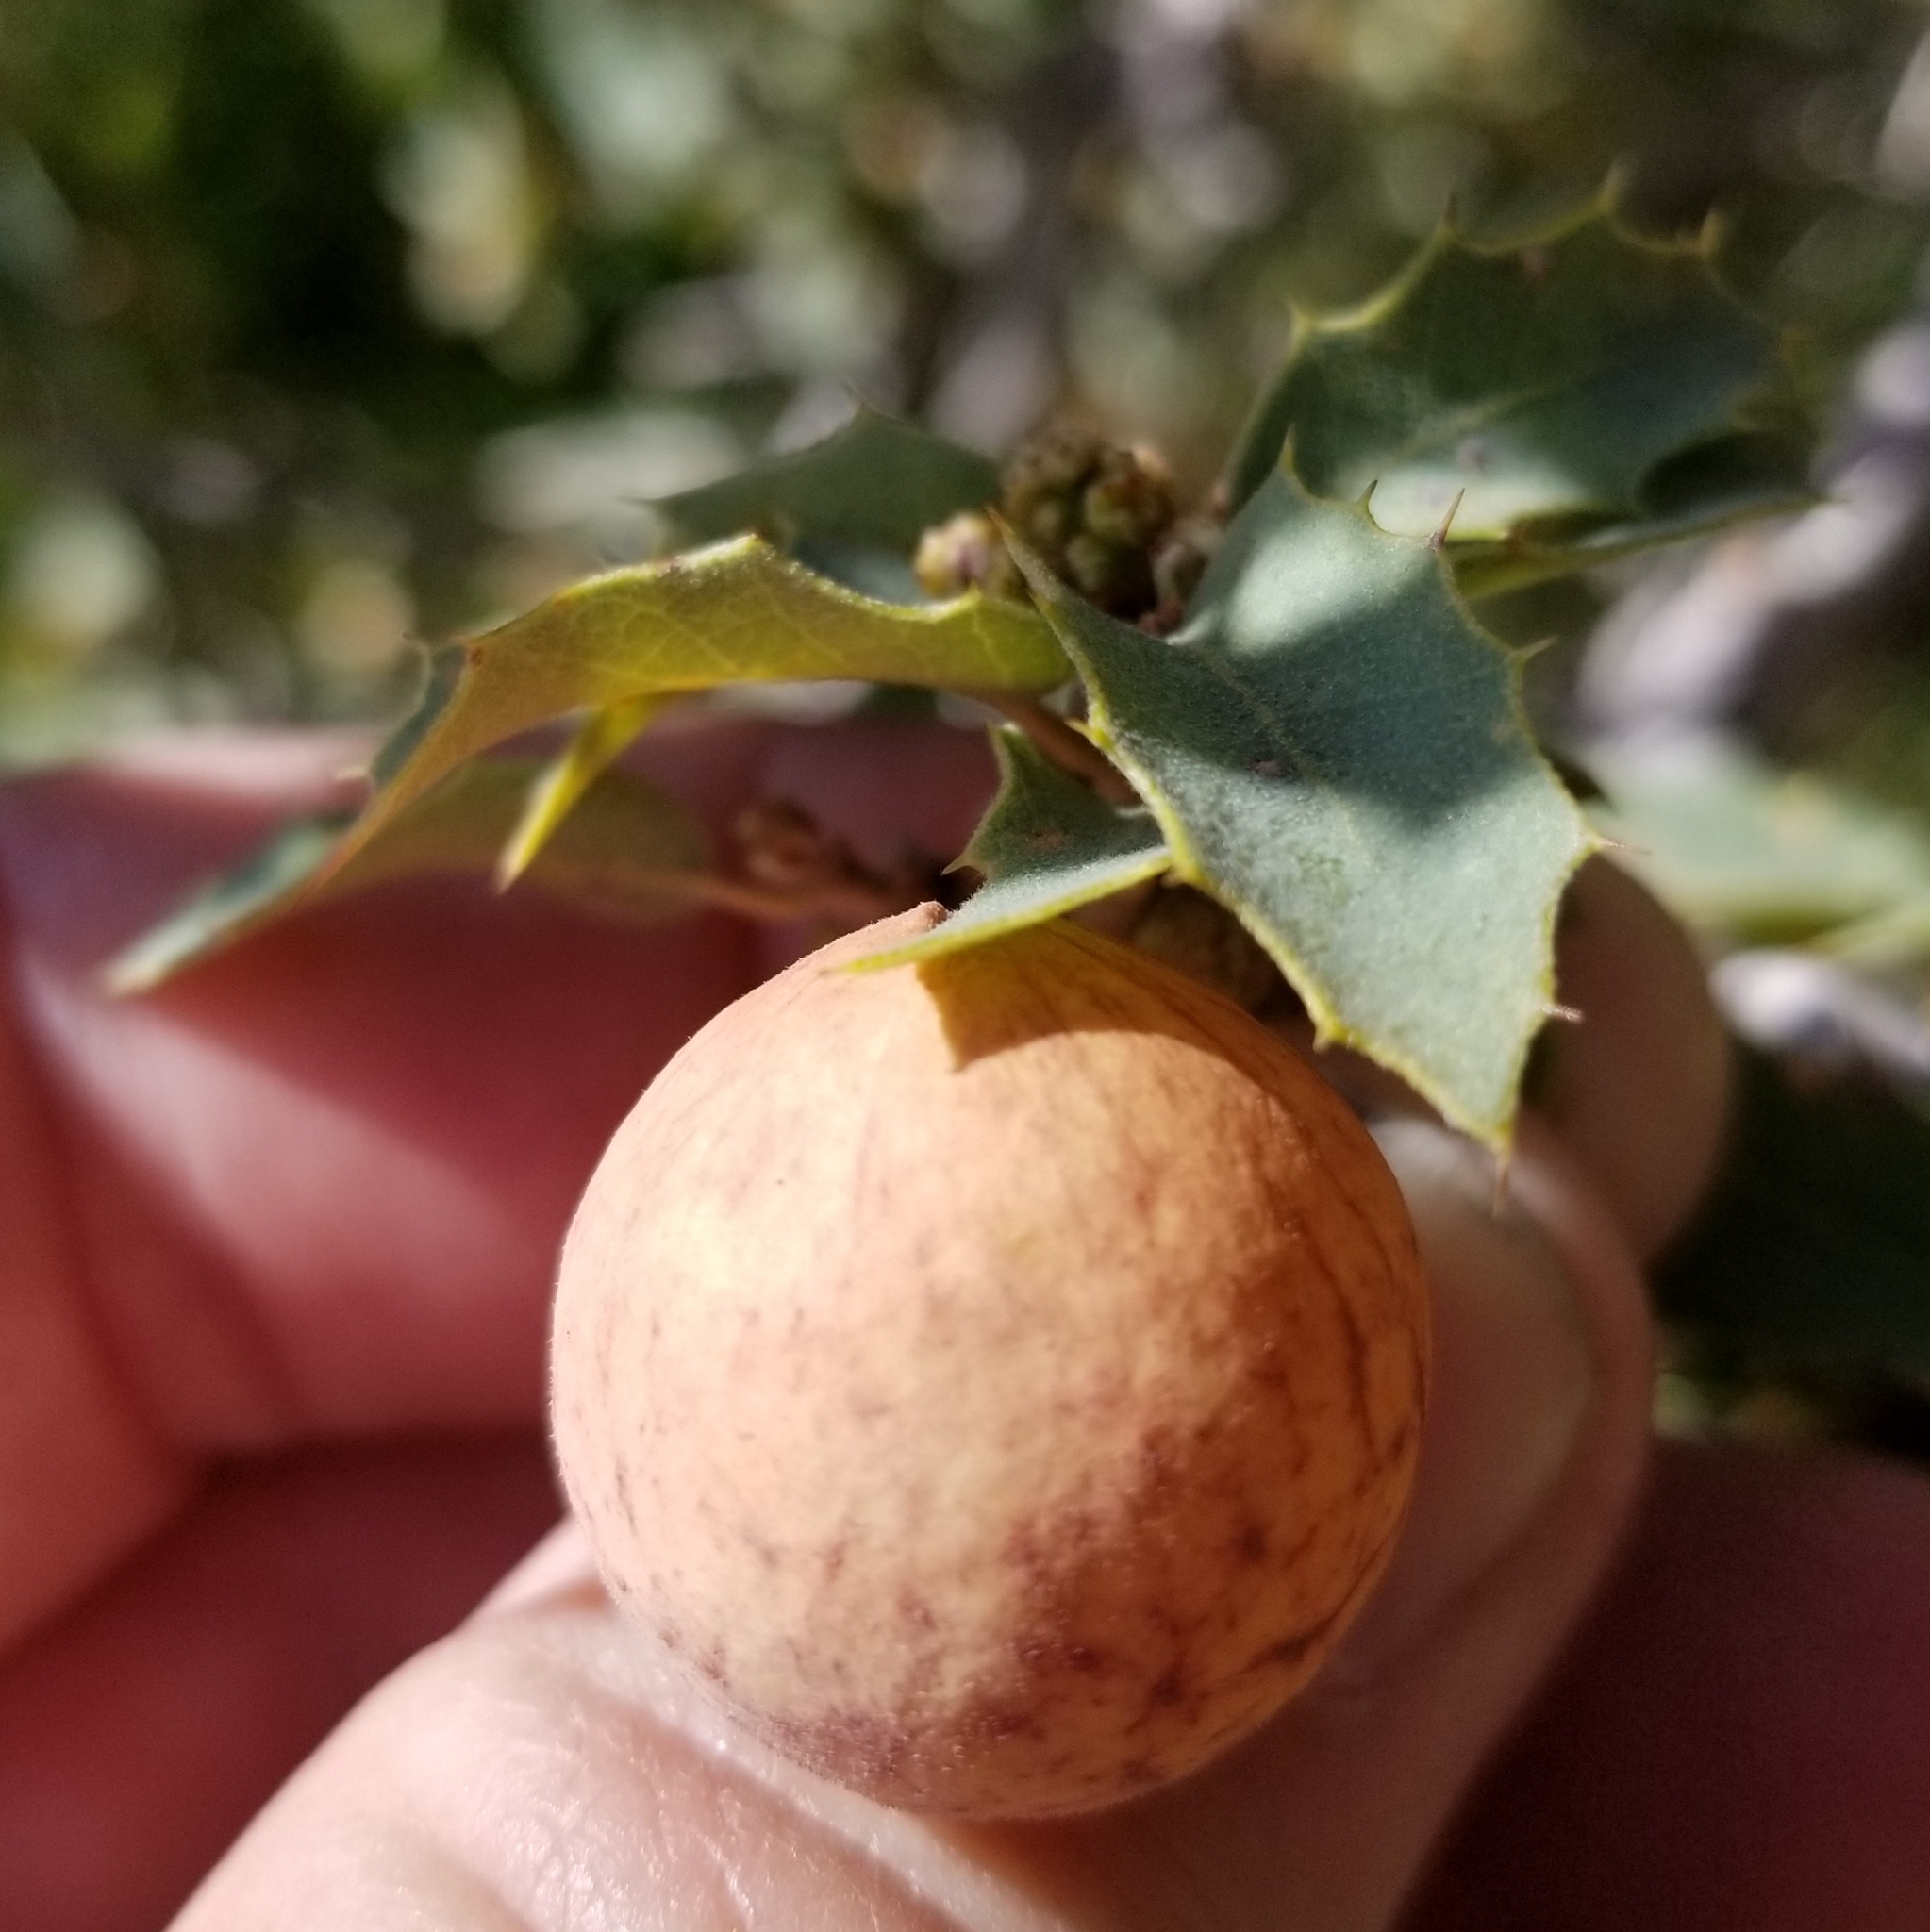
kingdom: Animalia
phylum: Arthropoda
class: Insecta
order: Hymenoptera
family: Cynipidae
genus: Atrusca
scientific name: Atrusca
